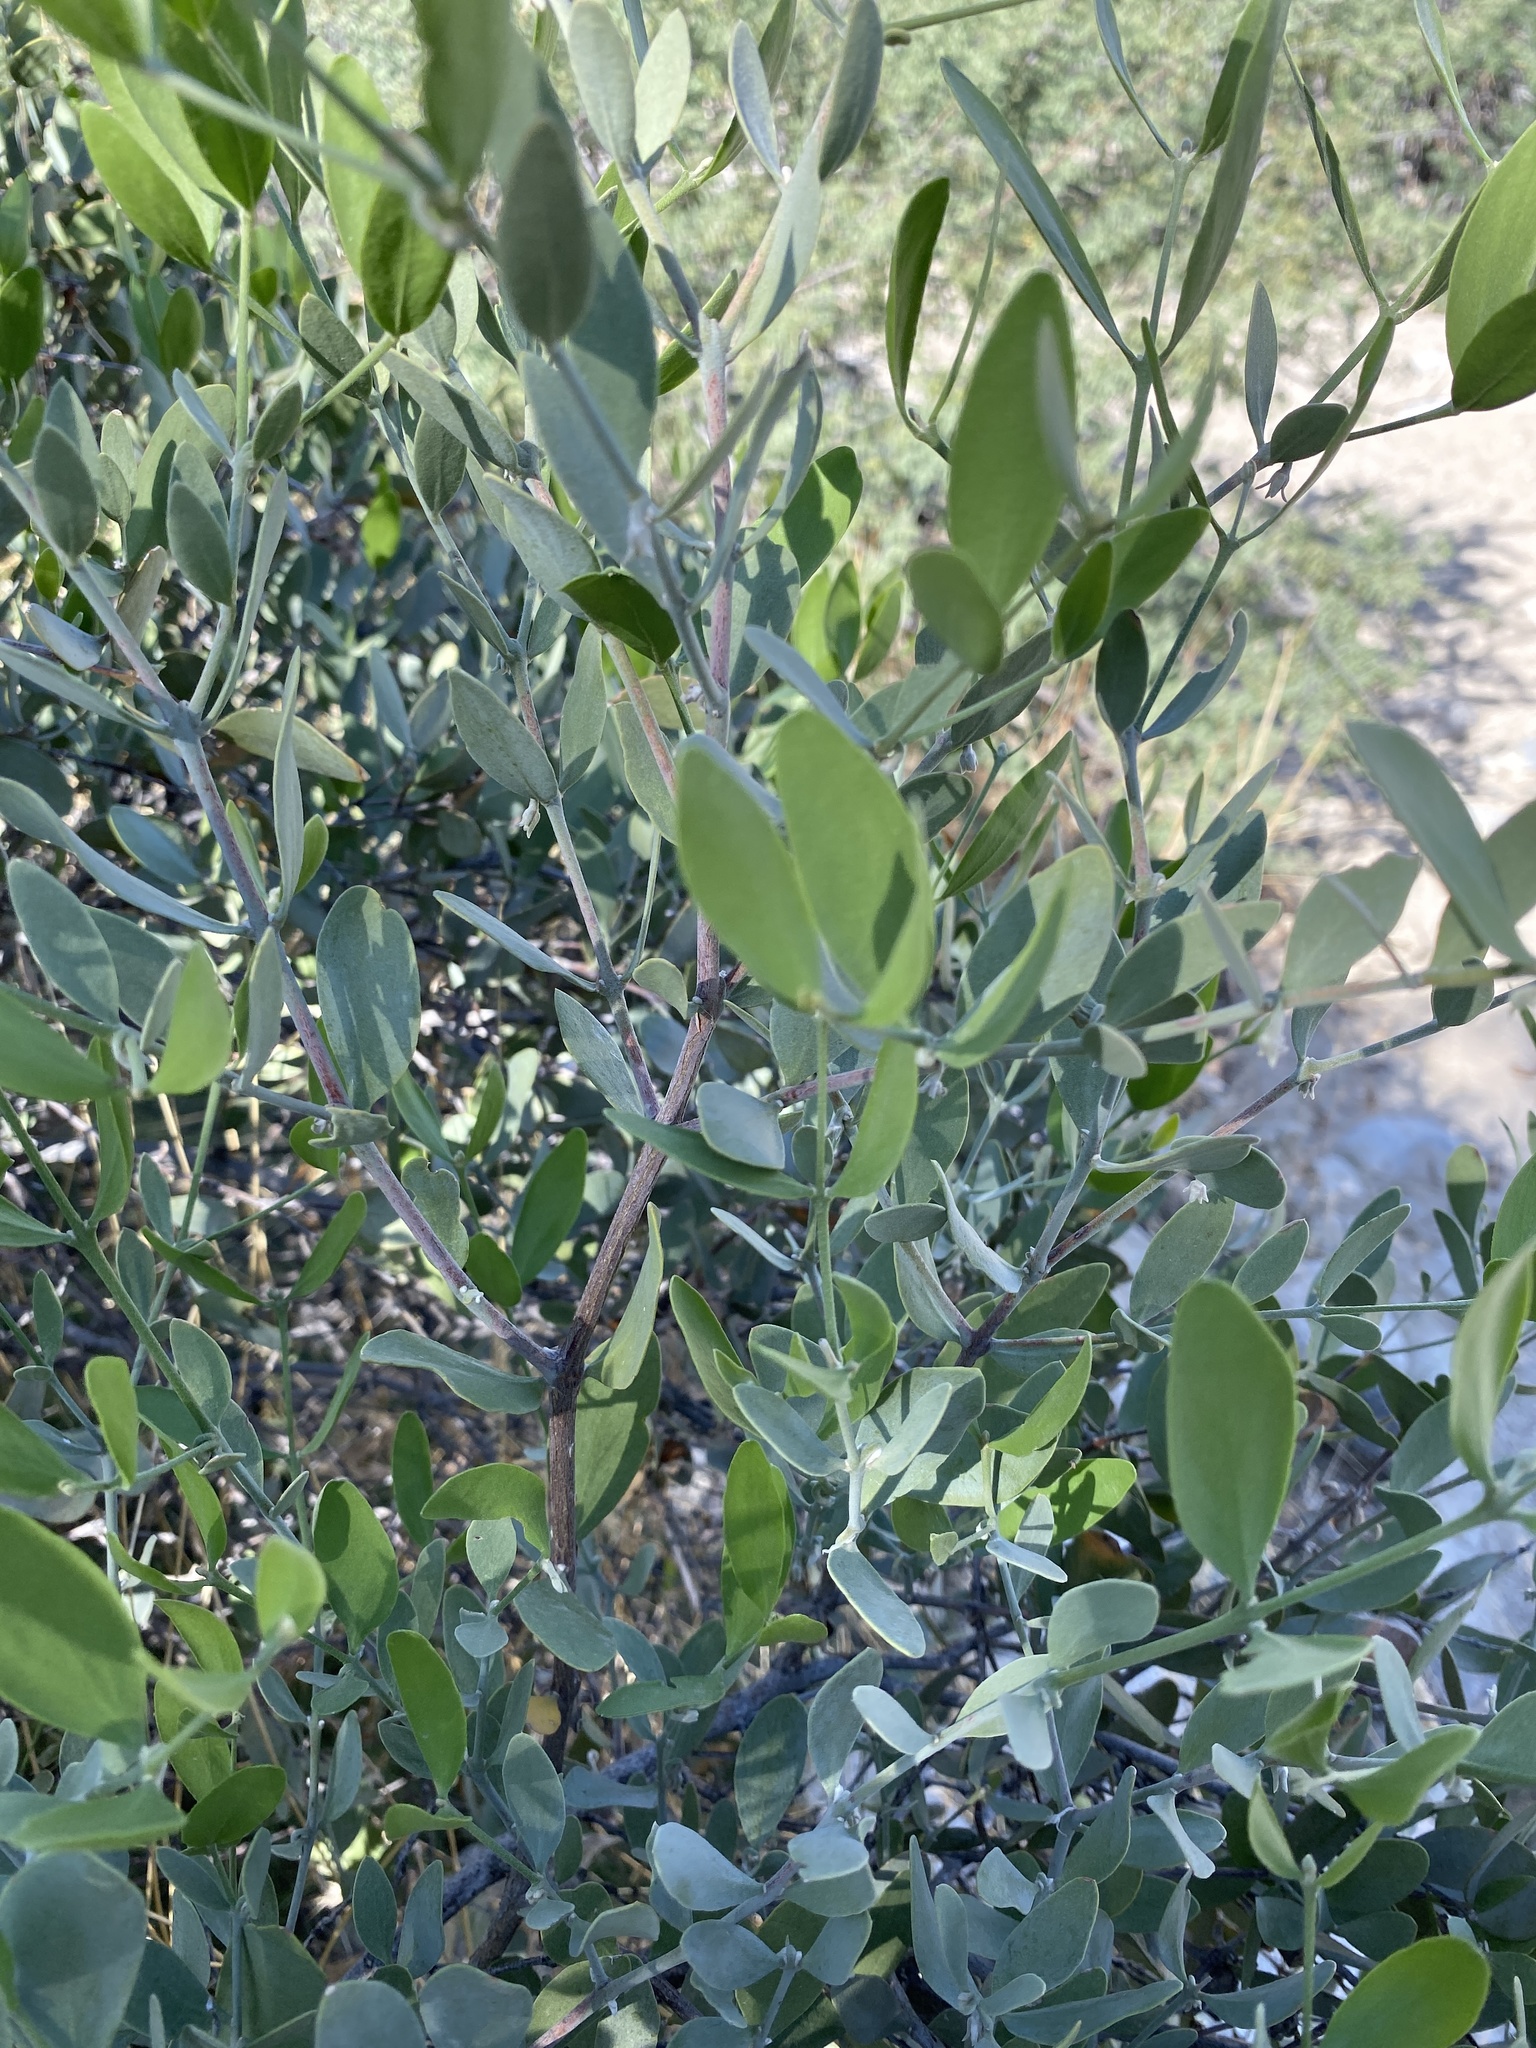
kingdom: Plantae
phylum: Tracheophyta
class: Magnoliopsida
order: Caryophyllales
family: Simmondsiaceae
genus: Simmondsia
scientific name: Simmondsia chinensis
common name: Jojoba
